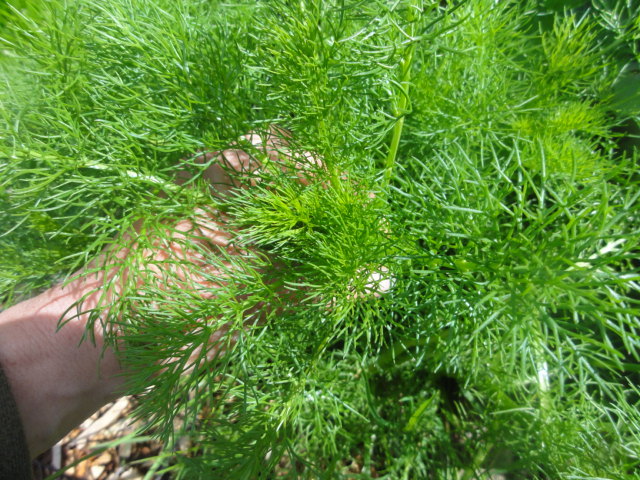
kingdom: Plantae
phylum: Tracheophyta
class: Magnoliopsida
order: Asterales
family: Asteraceae
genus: Tripleurospermum
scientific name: Tripleurospermum inodorum
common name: Scentless mayweed
